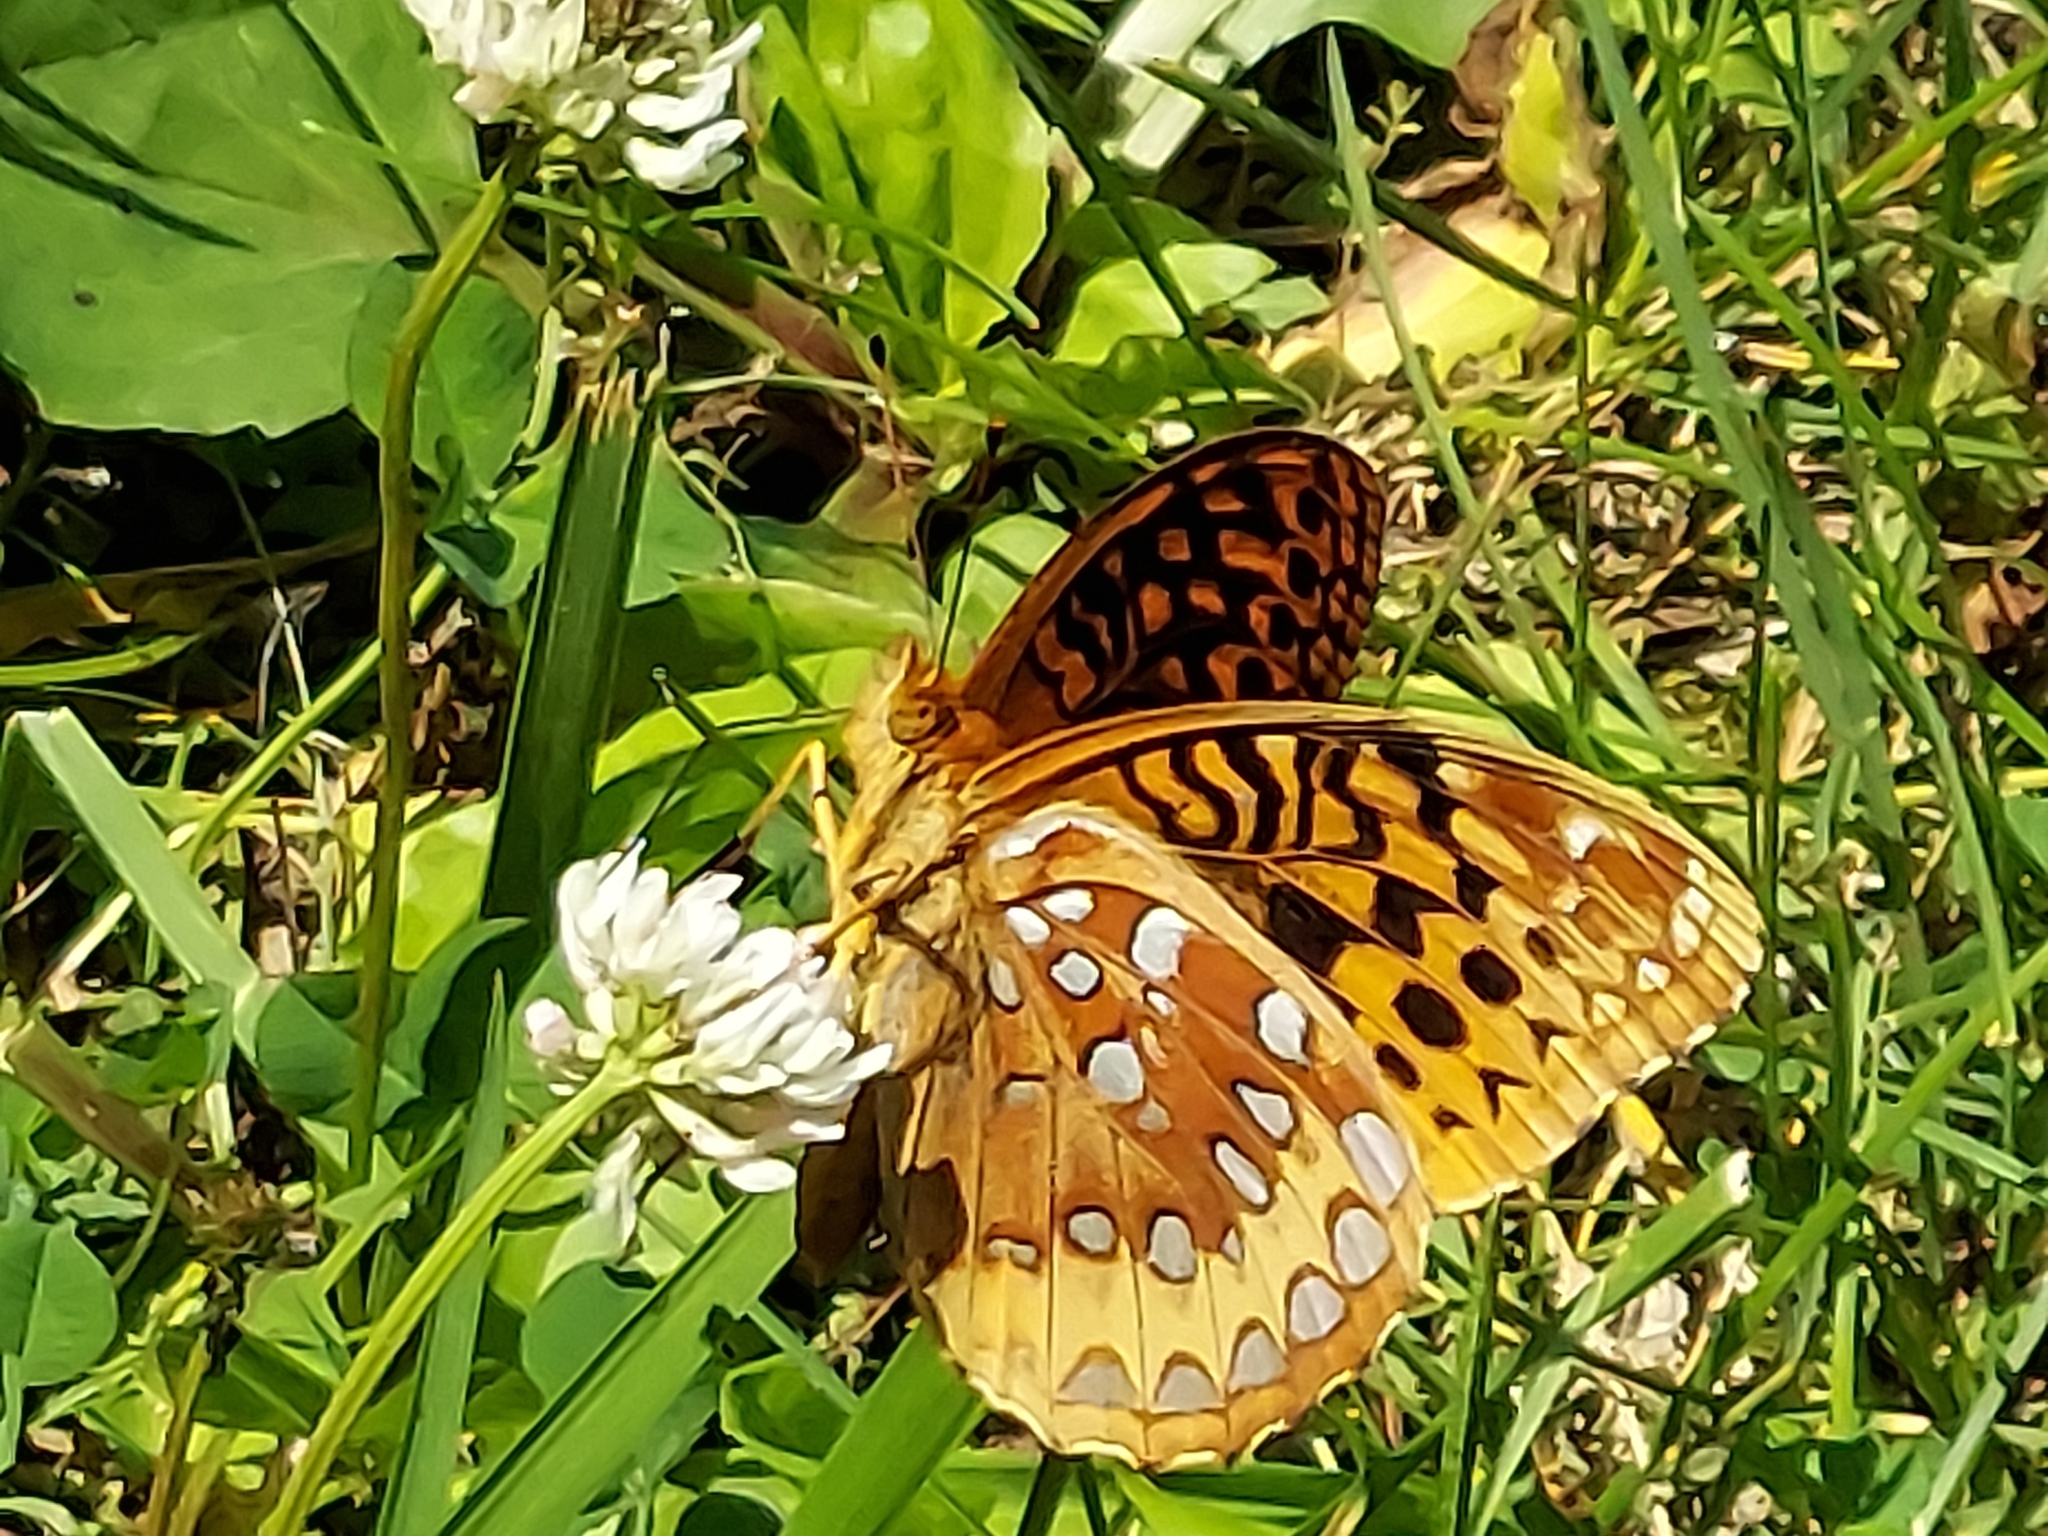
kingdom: Animalia
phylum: Arthropoda
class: Insecta
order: Lepidoptera
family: Nymphalidae
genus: Speyeria
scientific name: Speyeria cybele
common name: Great spangled fritillary
